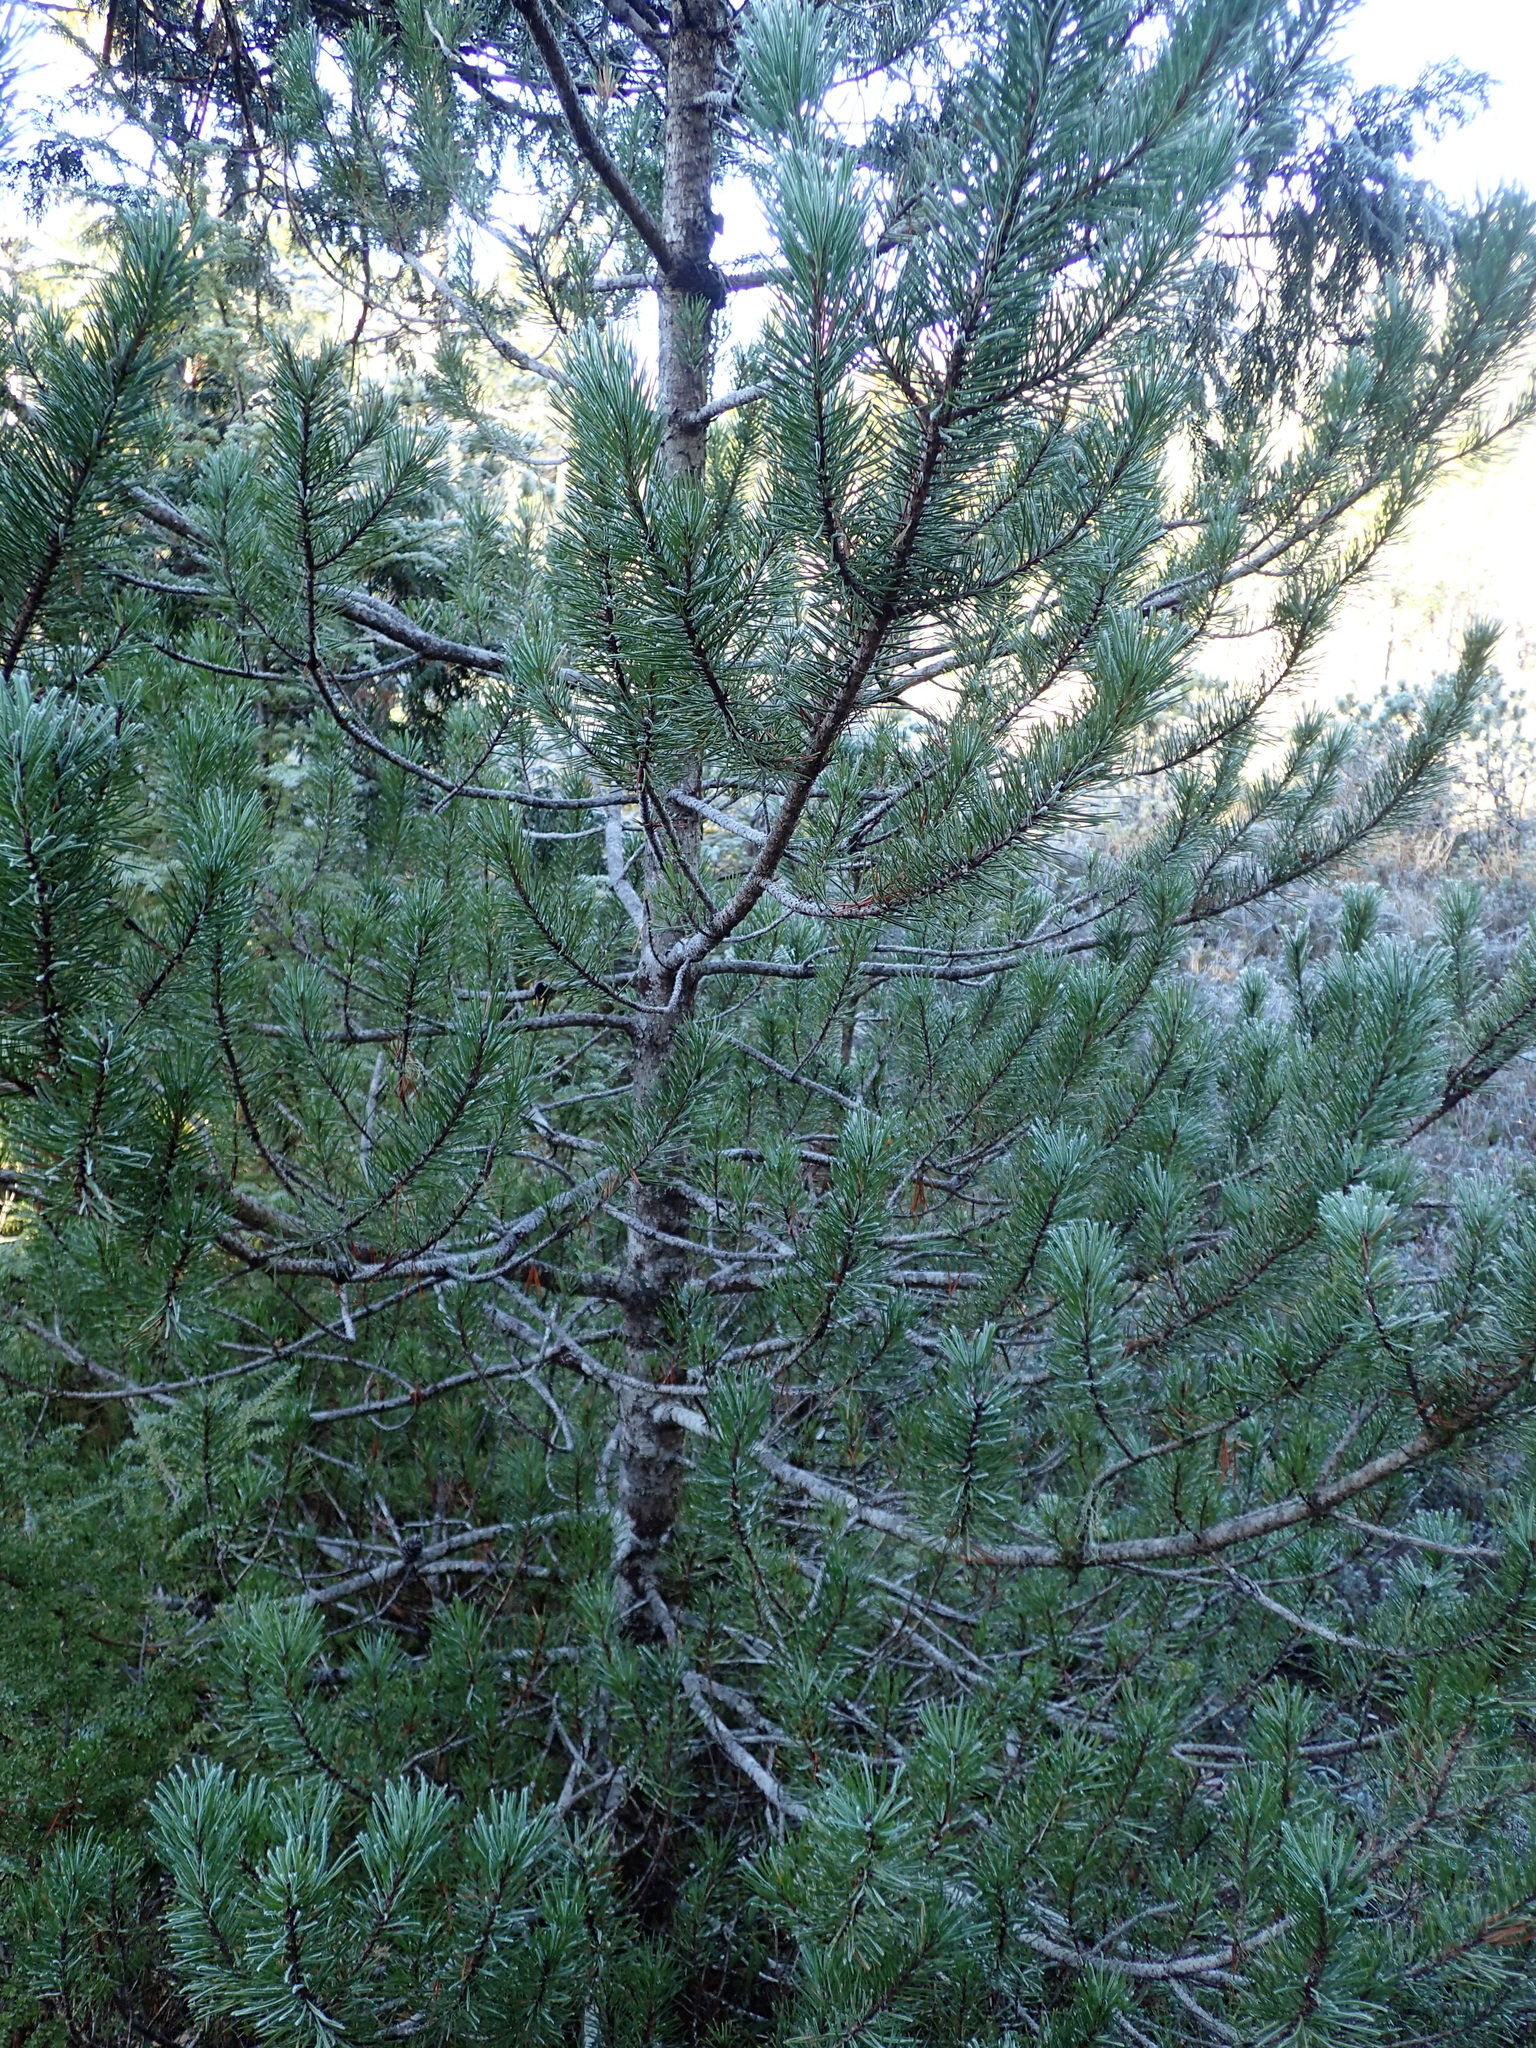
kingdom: Plantae
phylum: Tracheophyta
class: Pinopsida
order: Pinales
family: Pinaceae
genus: Pinus
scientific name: Pinus contorta
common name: Lodgepole pine
